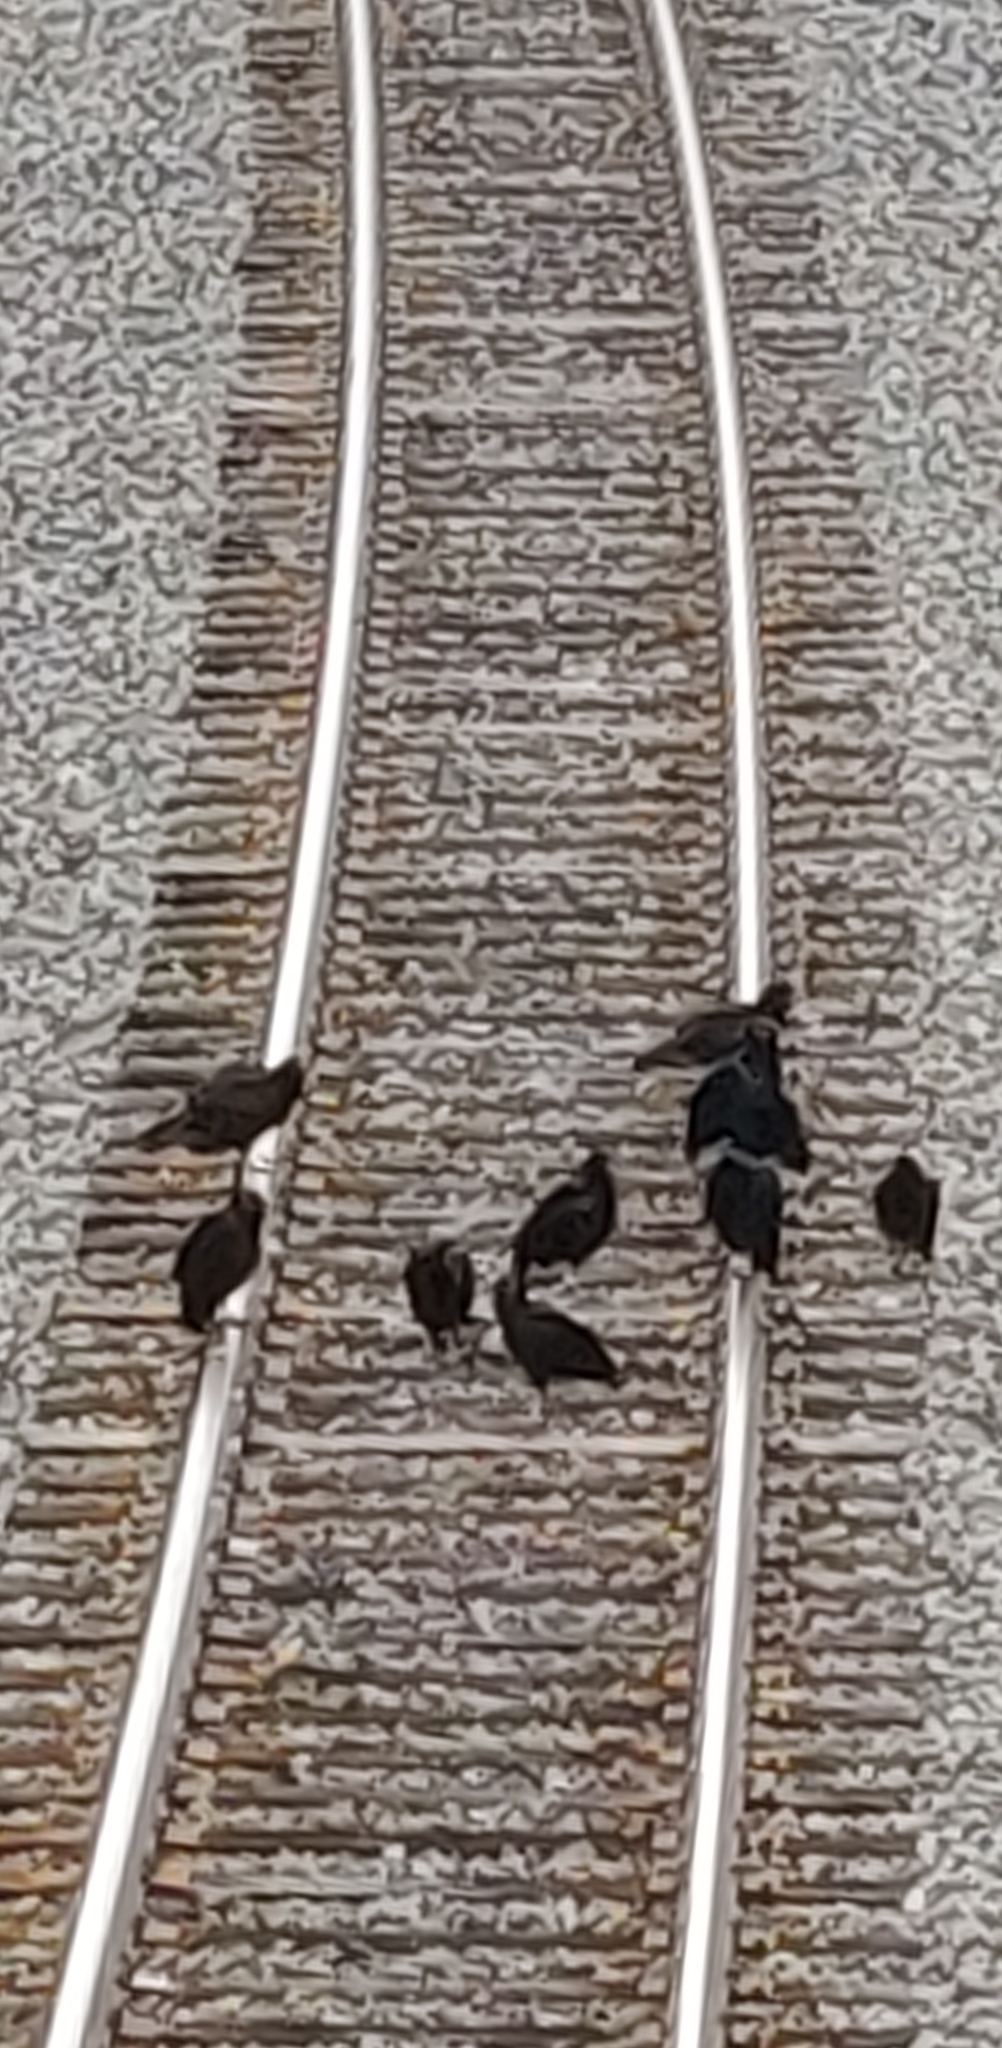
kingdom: Animalia
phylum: Chordata
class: Aves
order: Accipitriformes
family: Cathartidae
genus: Coragyps
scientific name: Coragyps atratus
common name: Black vulture
